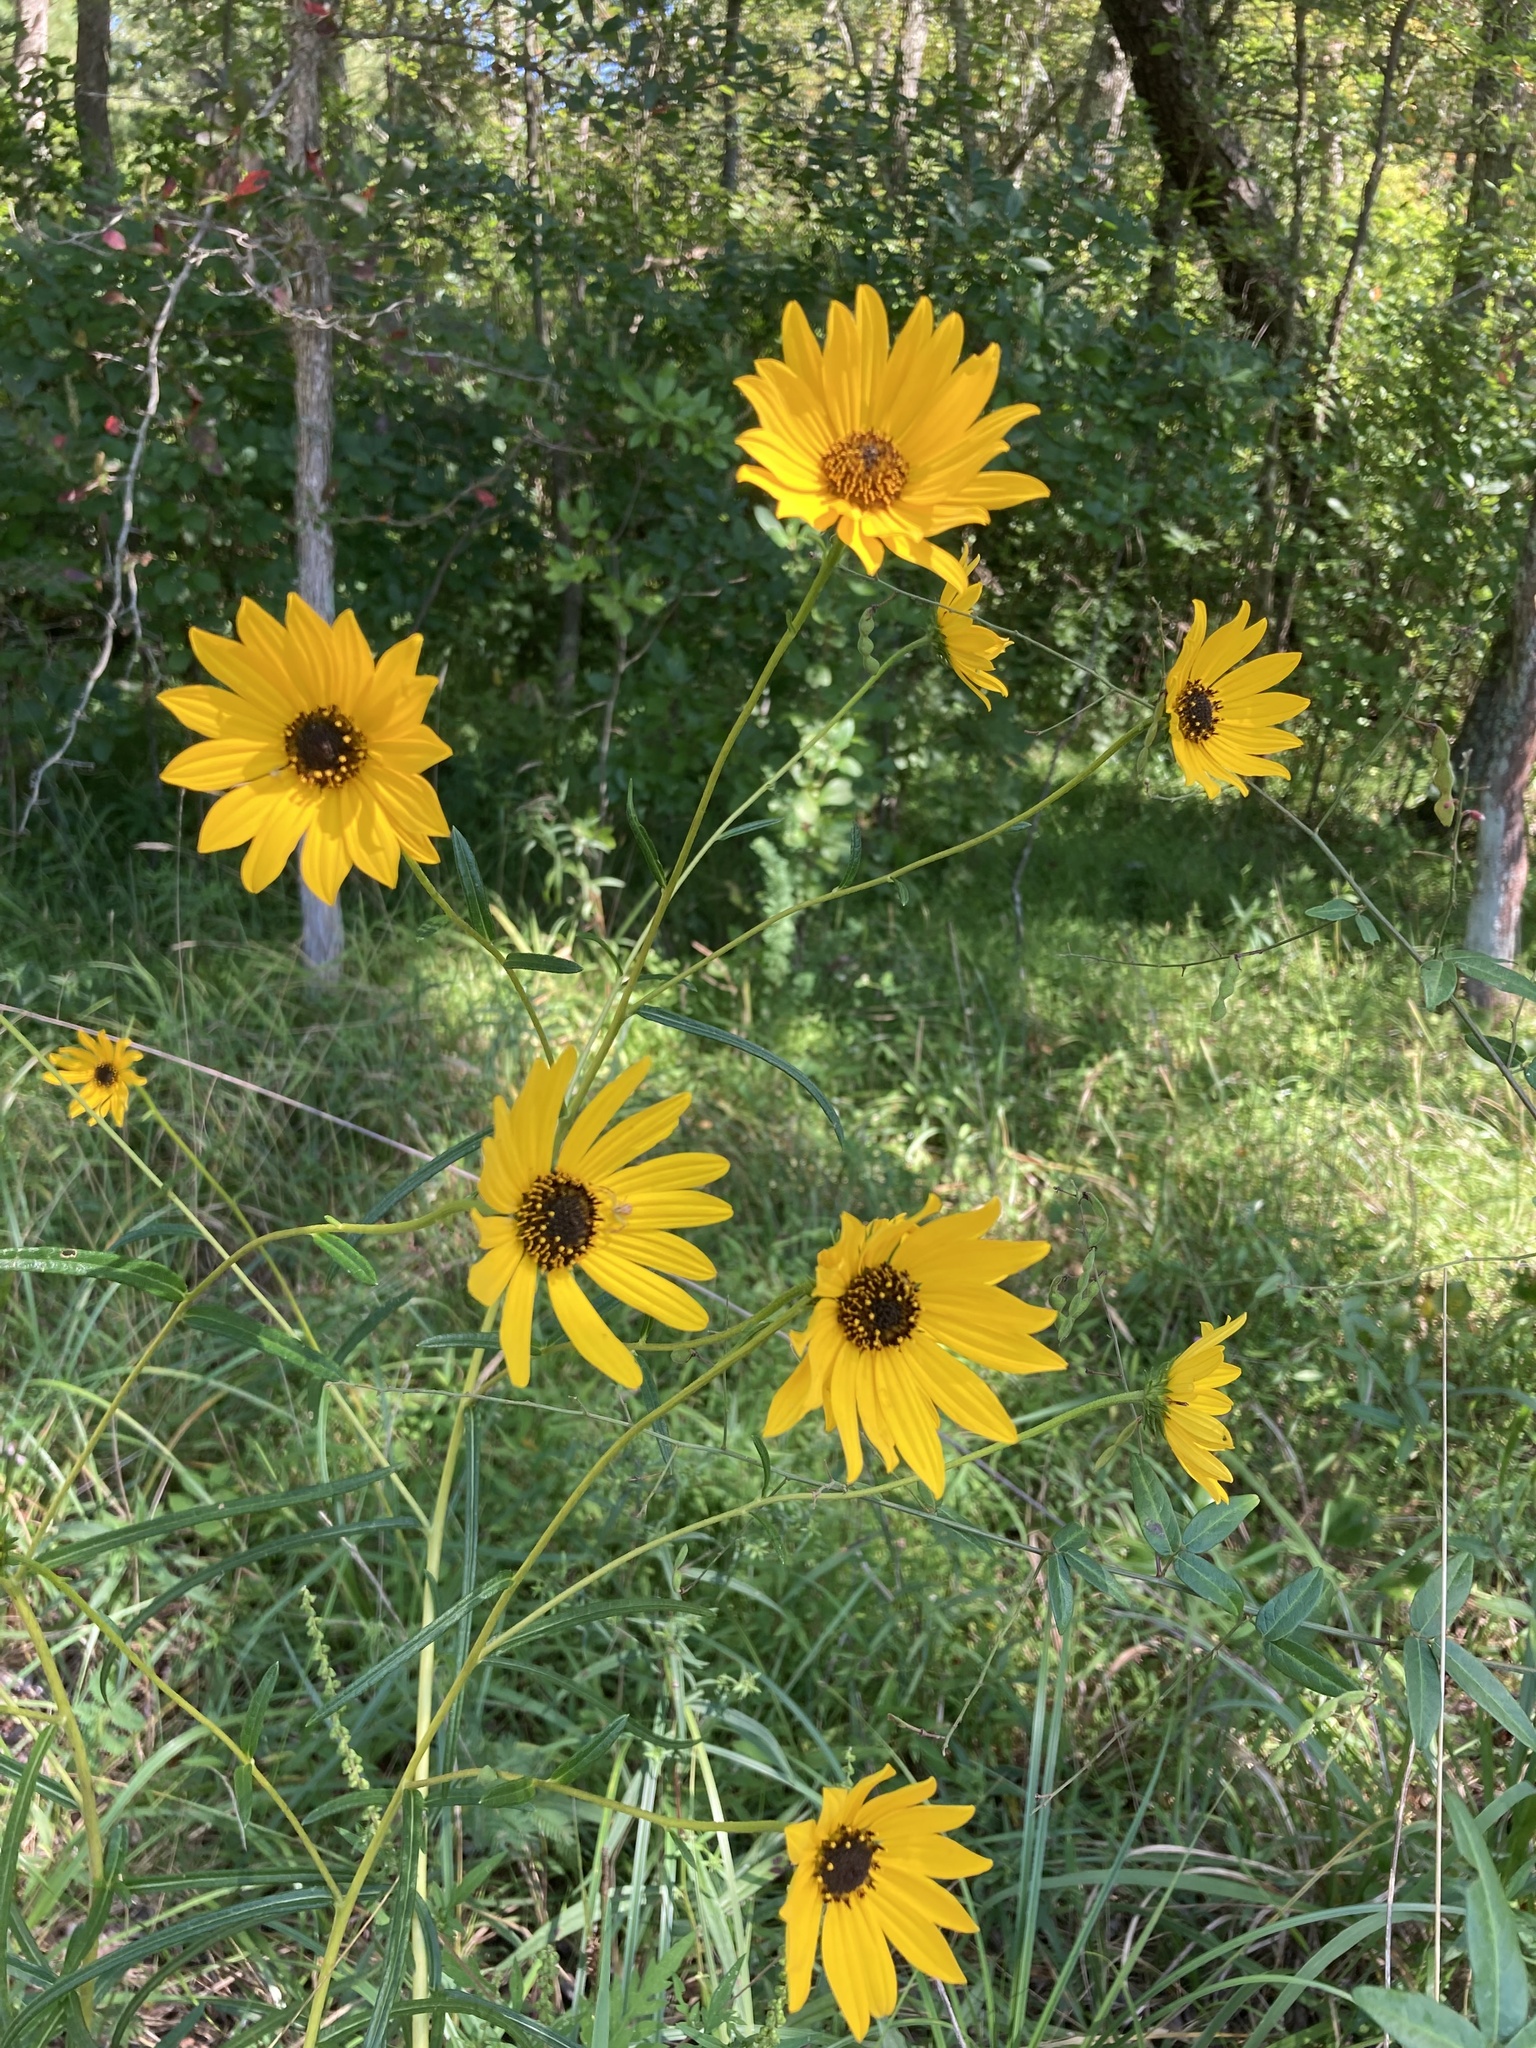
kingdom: Plantae
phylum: Tracheophyta
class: Magnoliopsida
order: Asterales
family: Asteraceae
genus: Helianthus
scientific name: Helianthus angustifolius
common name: Swamp sunflower
